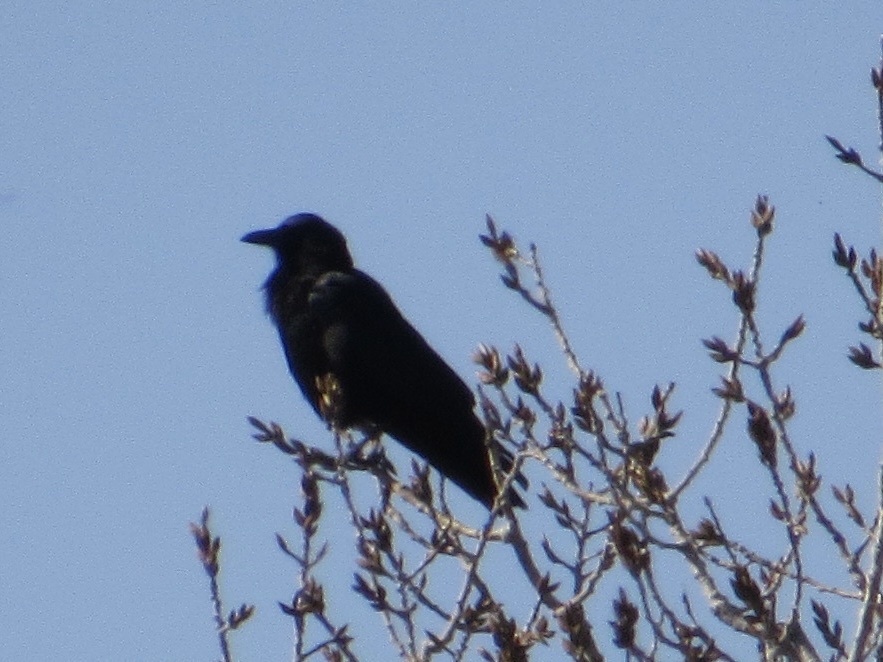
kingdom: Animalia
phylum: Chordata
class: Aves
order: Passeriformes
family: Corvidae
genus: Corvus
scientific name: Corvus brachyrhynchos
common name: American crow
